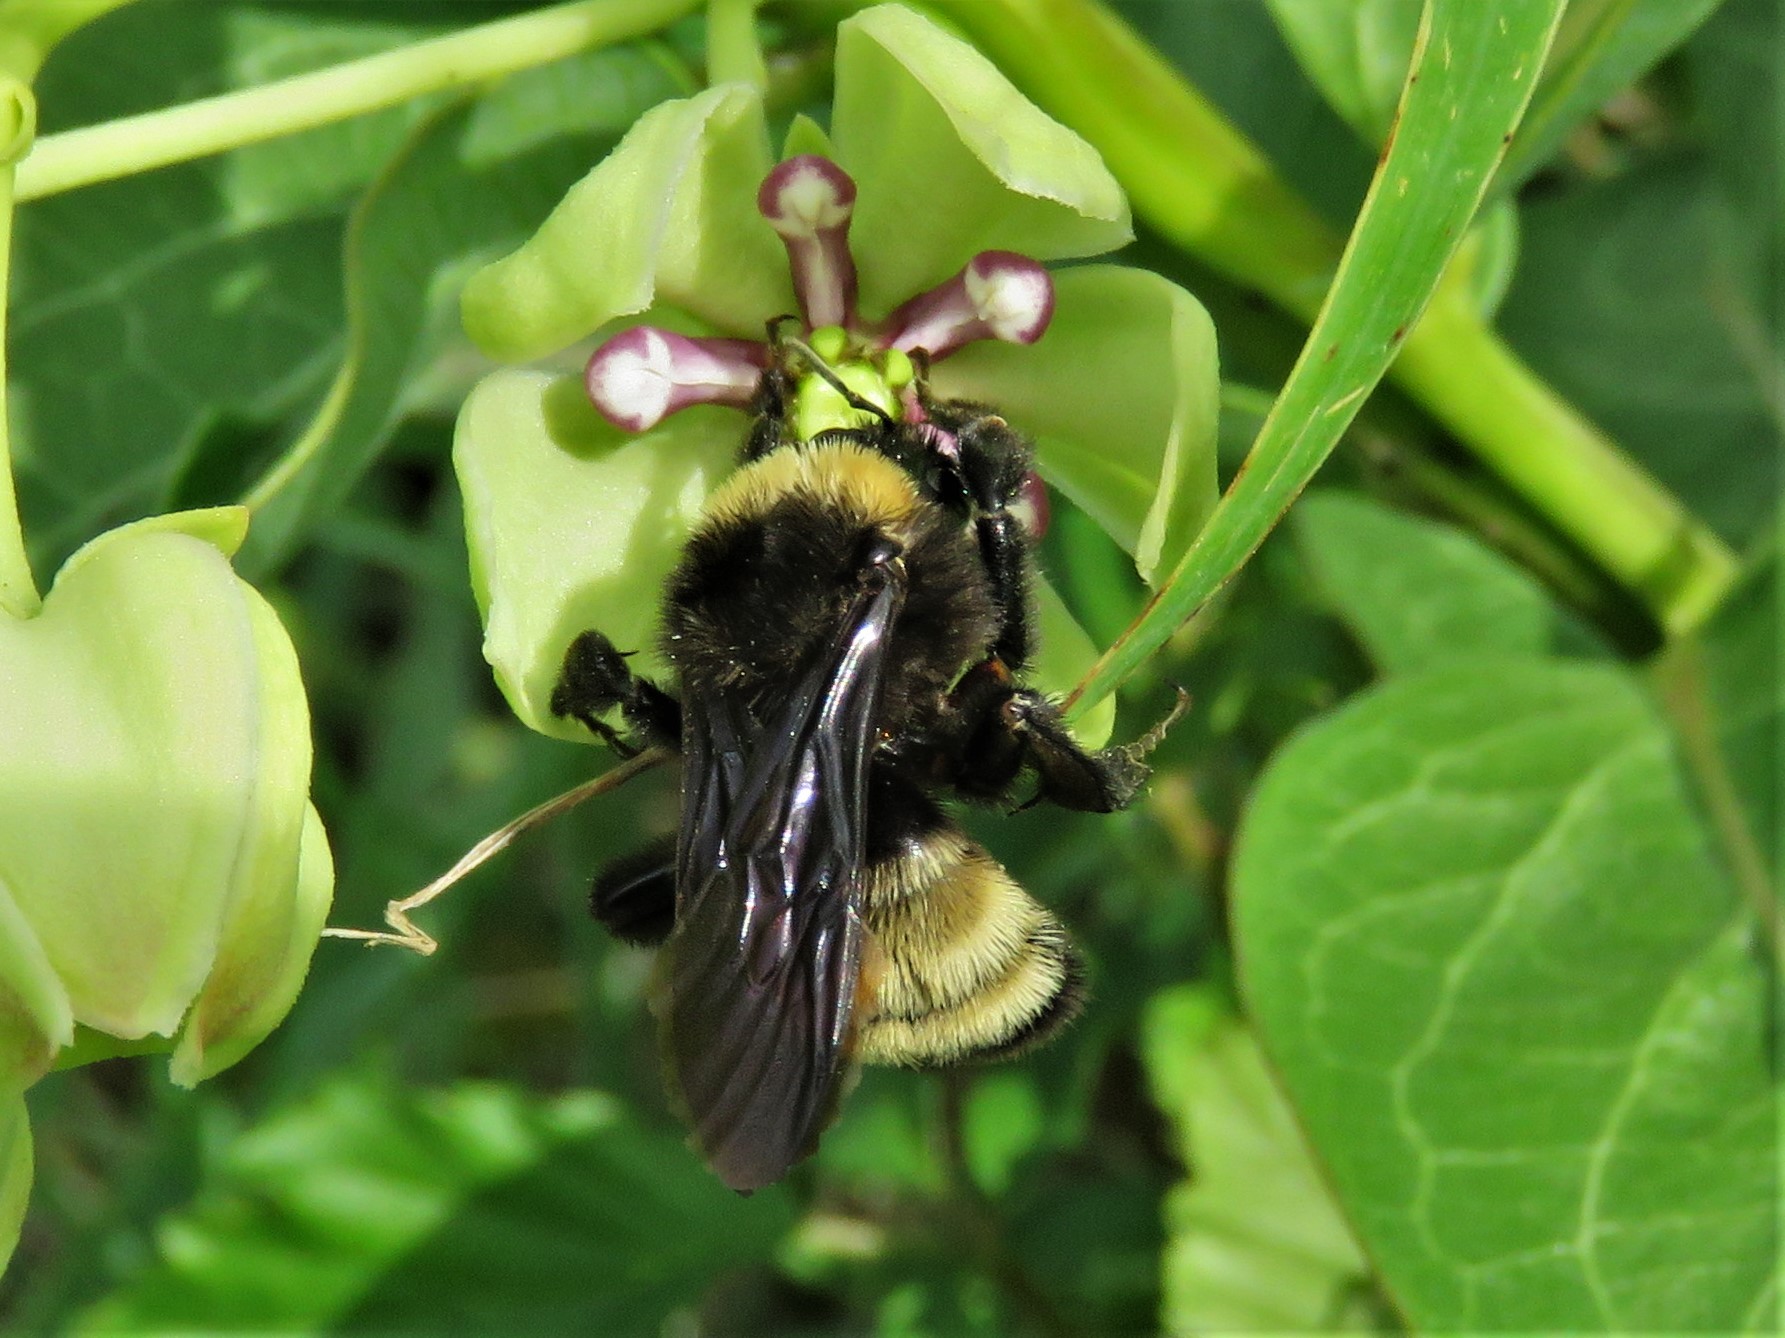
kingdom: Animalia
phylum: Arthropoda
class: Insecta
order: Hymenoptera
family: Apidae
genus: Bombus
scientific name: Bombus pensylvanicus
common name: Bumble bee
